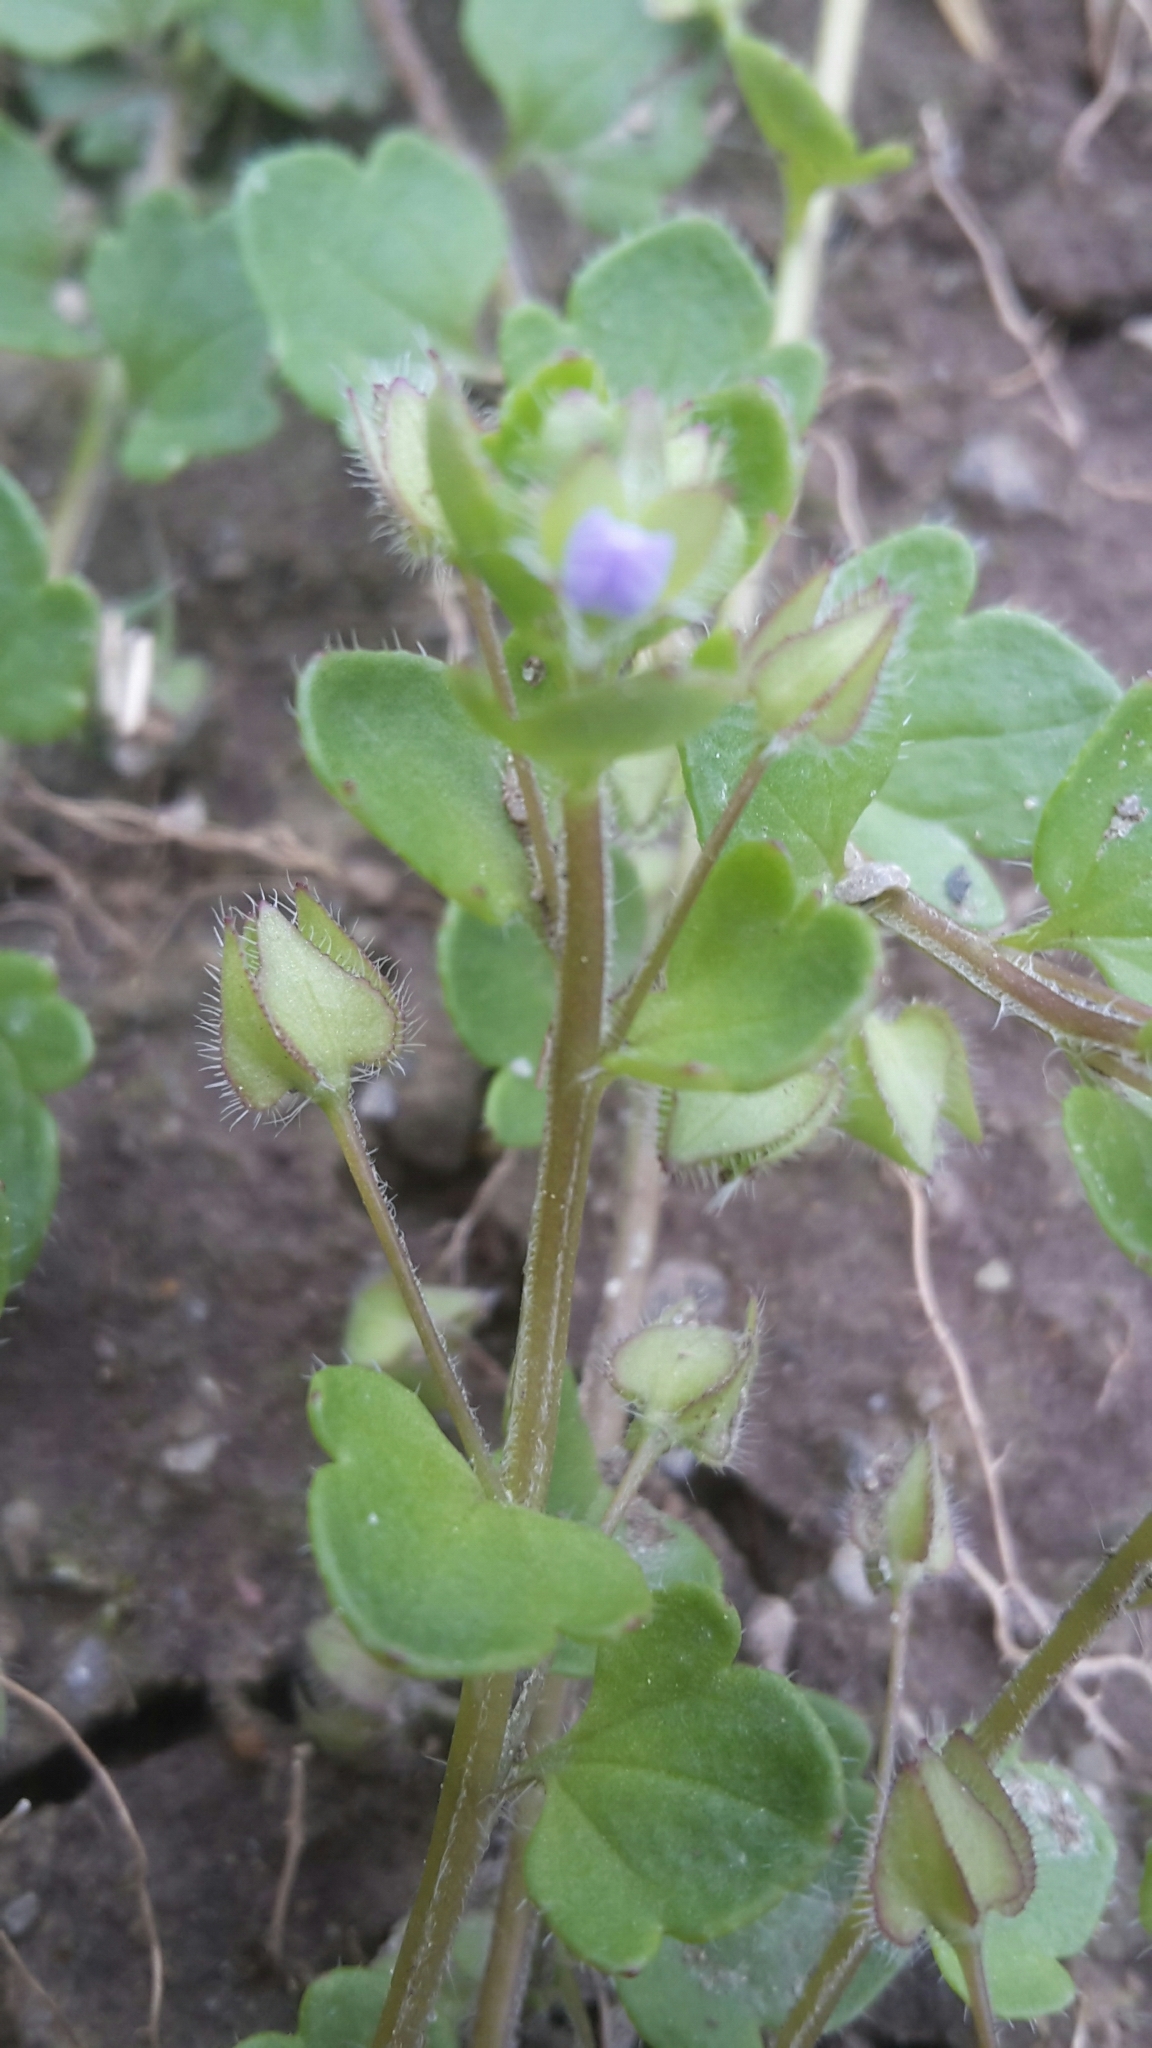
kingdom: Plantae
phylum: Tracheophyta
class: Magnoliopsida
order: Lamiales
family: Plantaginaceae
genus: Veronica
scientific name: Veronica hederifolia
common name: Ivy-leaved speedwell
